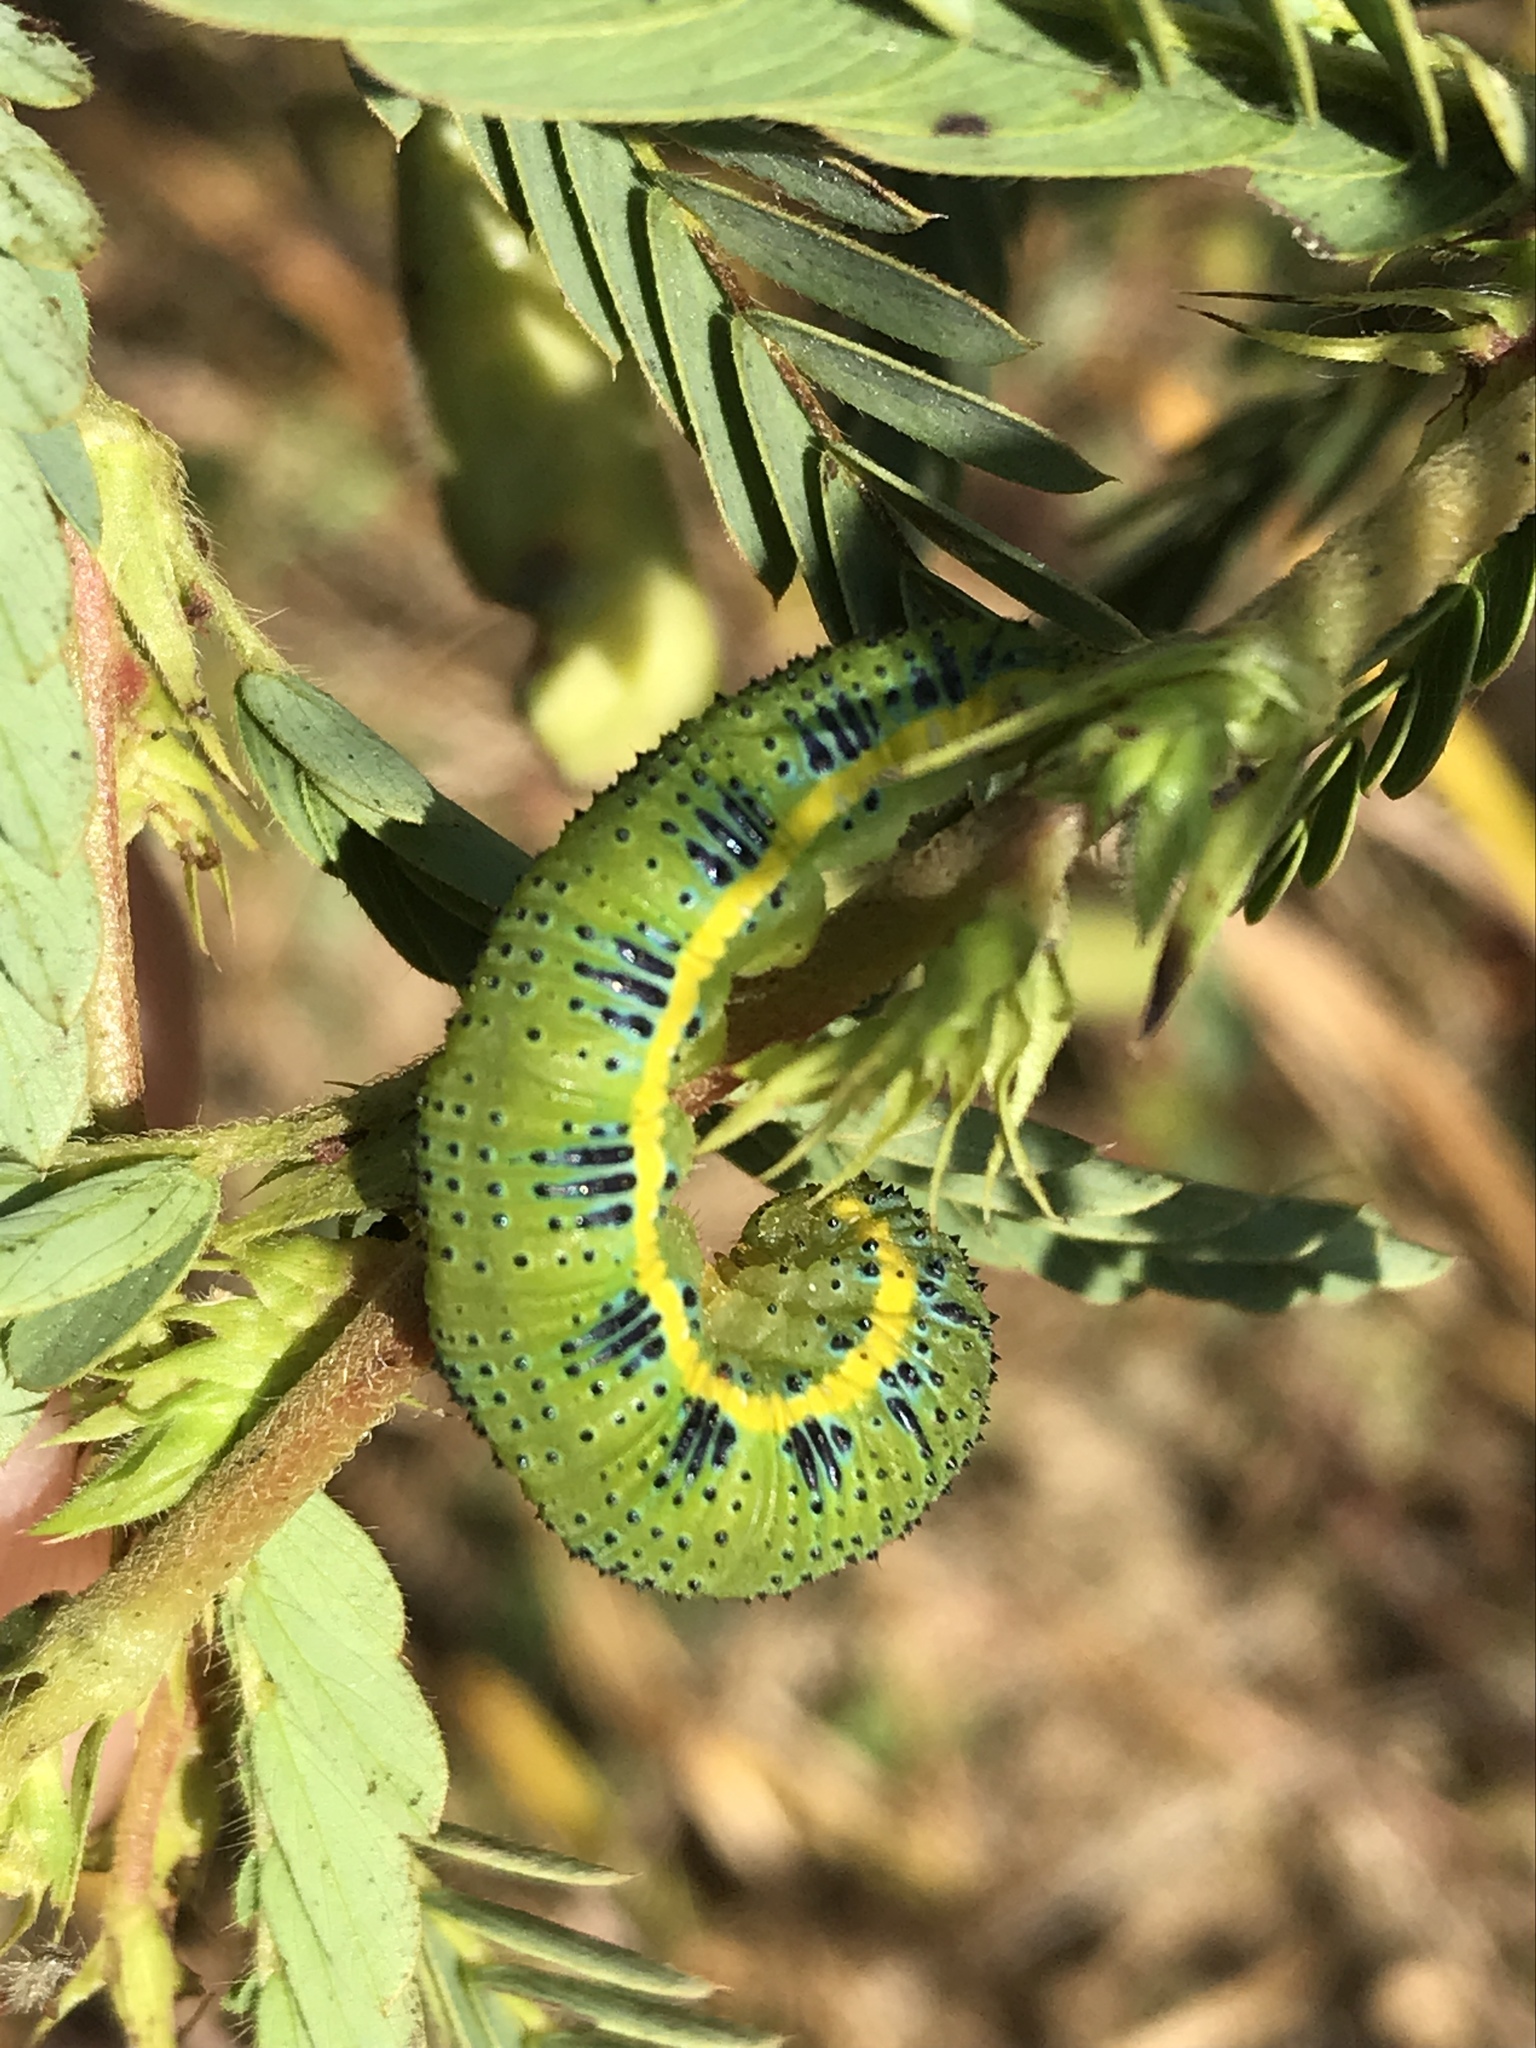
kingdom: Animalia
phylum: Arthropoda
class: Insecta
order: Lepidoptera
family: Pieridae
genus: Phoebis
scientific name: Phoebis sennae
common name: Cloudless sulphur
